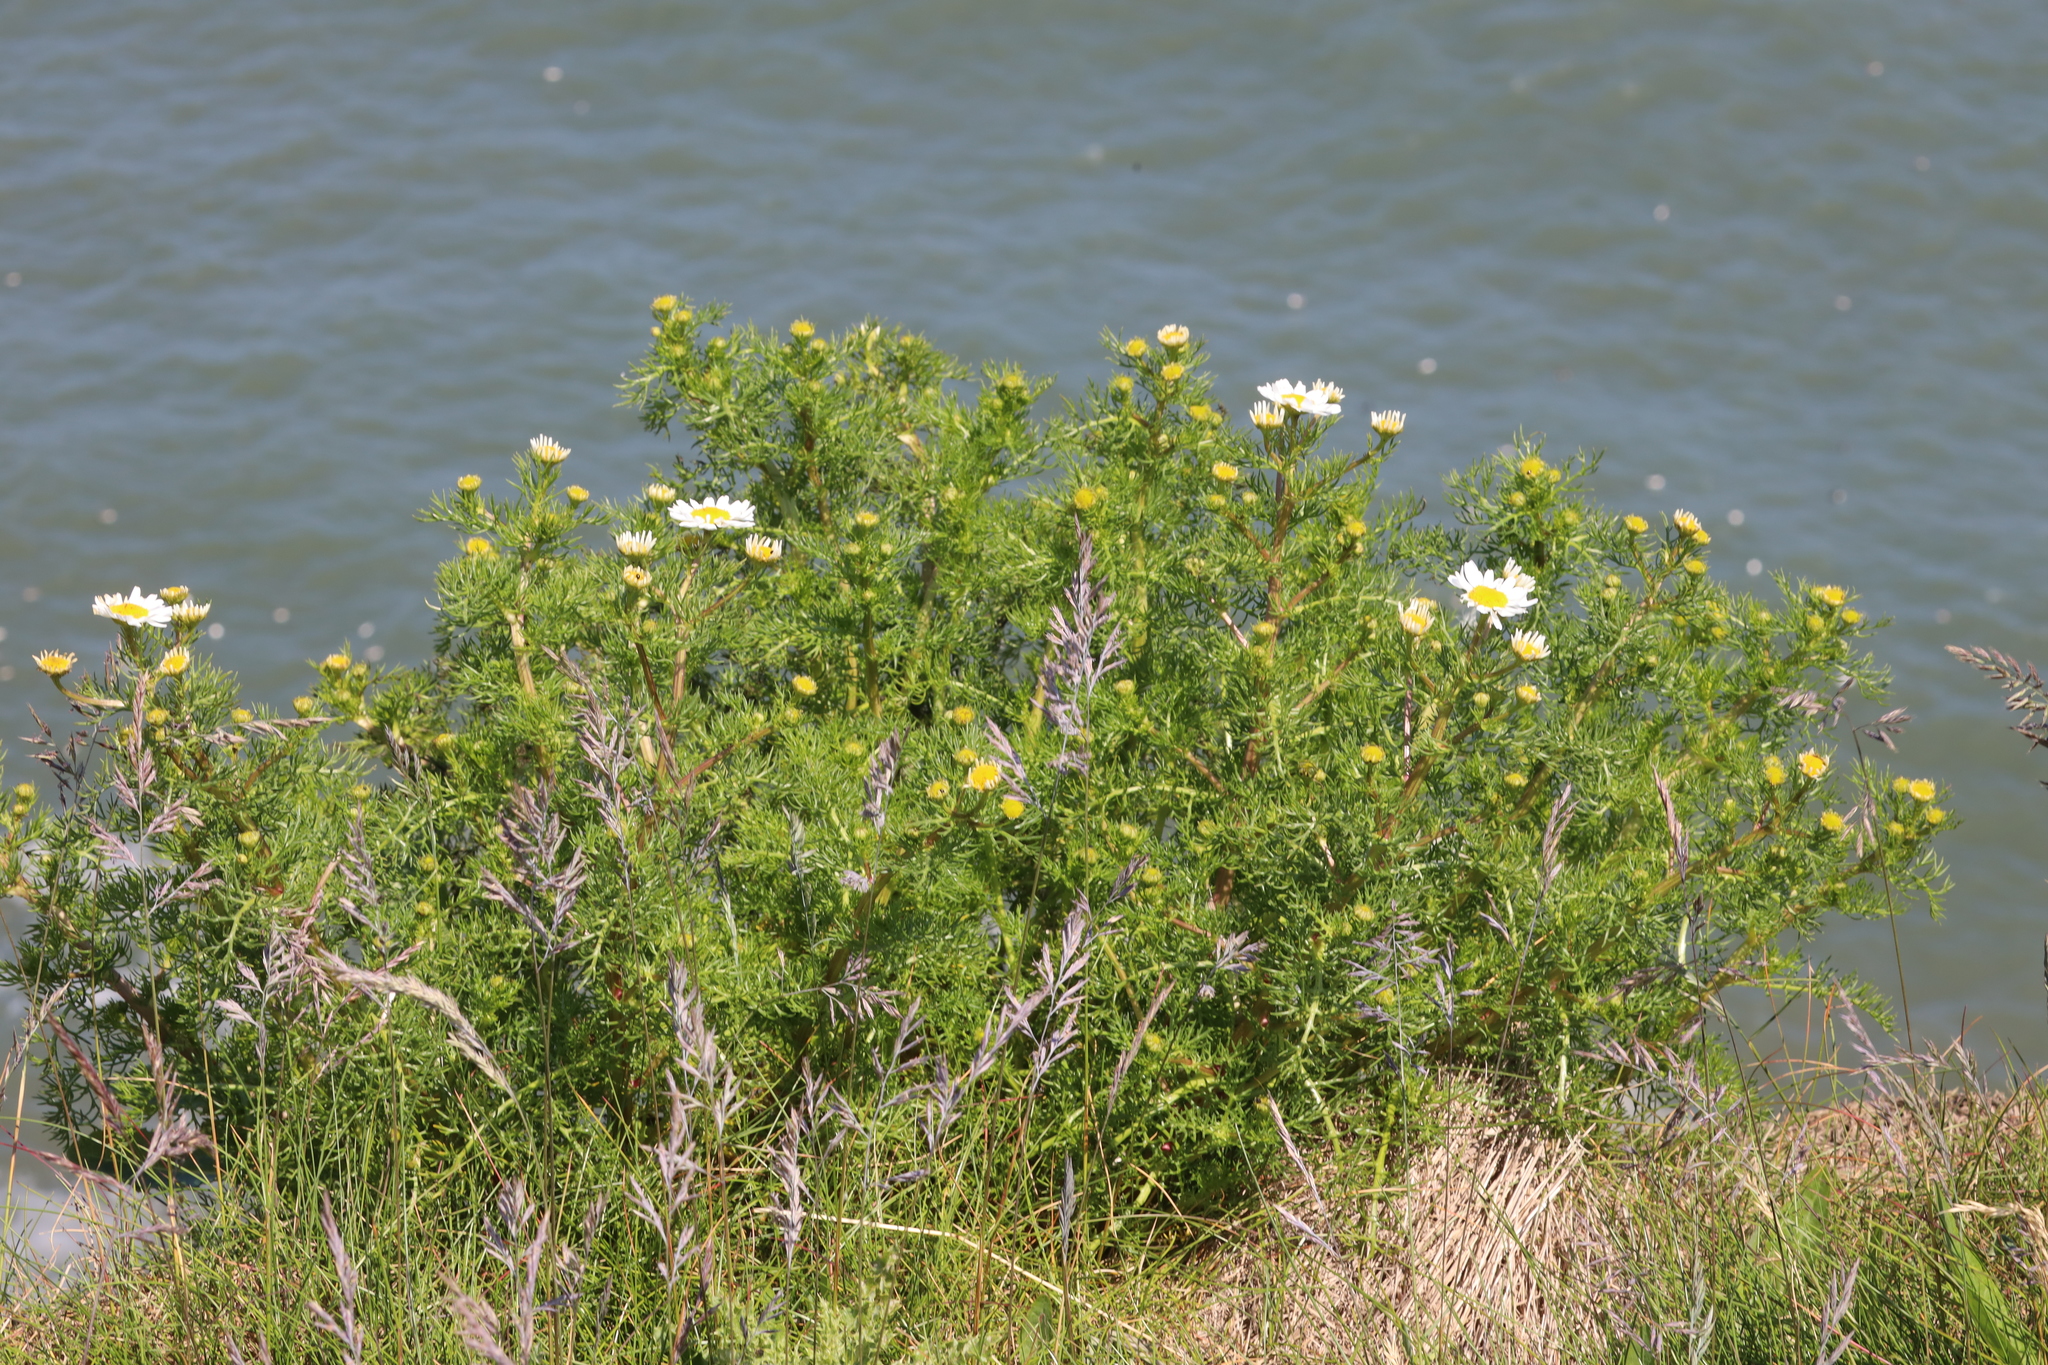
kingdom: Plantae
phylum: Tracheophyta
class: Magnoliopsida
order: Asterales
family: Asteraceae
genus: Tripleurospermum
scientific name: Tripleurospermum maritimum
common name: Sea mayweed
